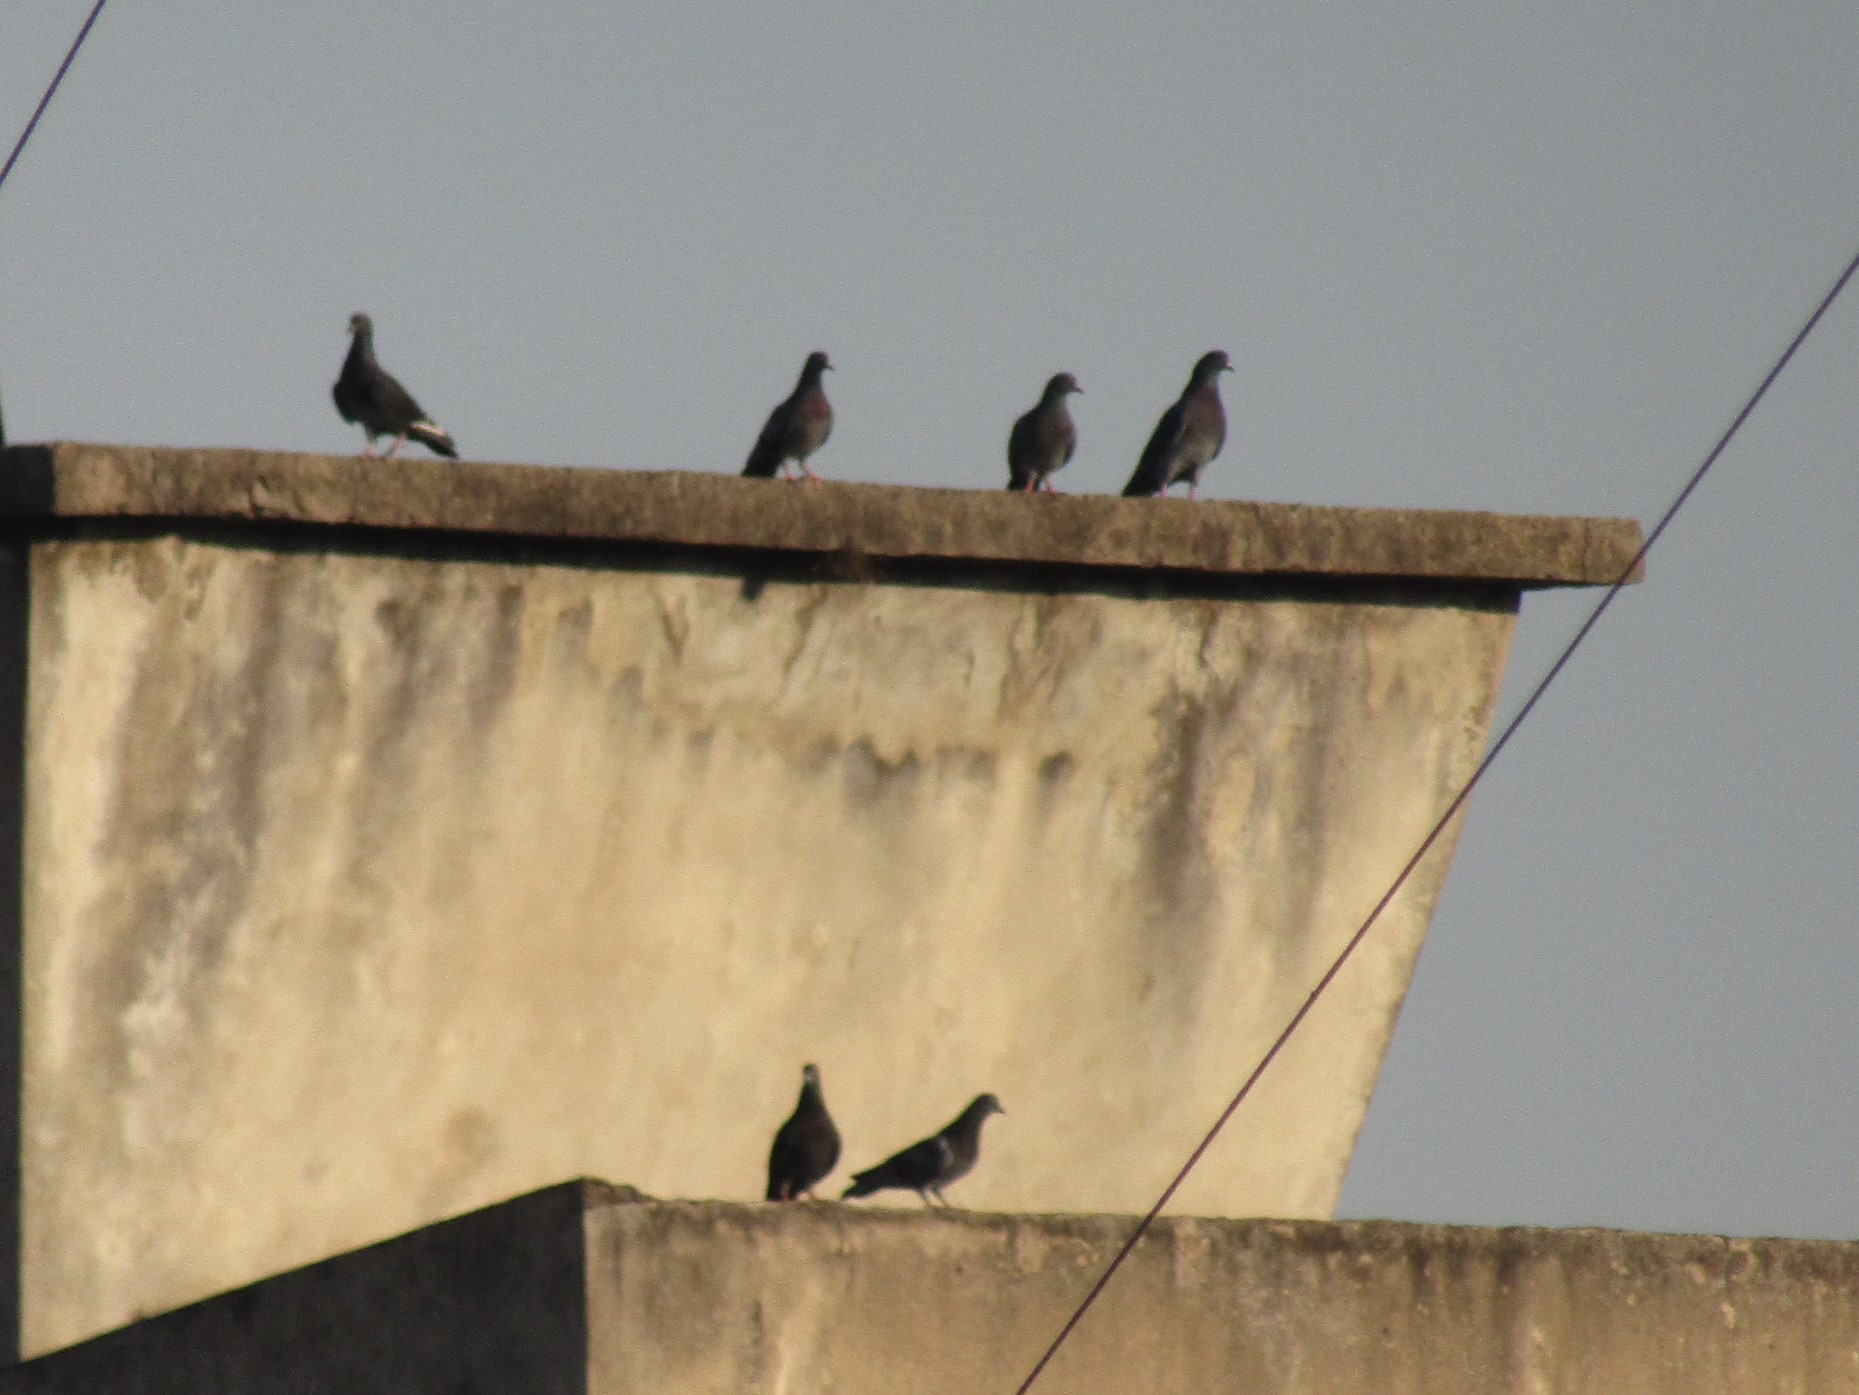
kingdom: Animalia
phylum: Chordata
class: Aves
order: Columbiformes
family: Columbidae
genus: Columba
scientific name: Columba livia
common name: Rock pigeon
